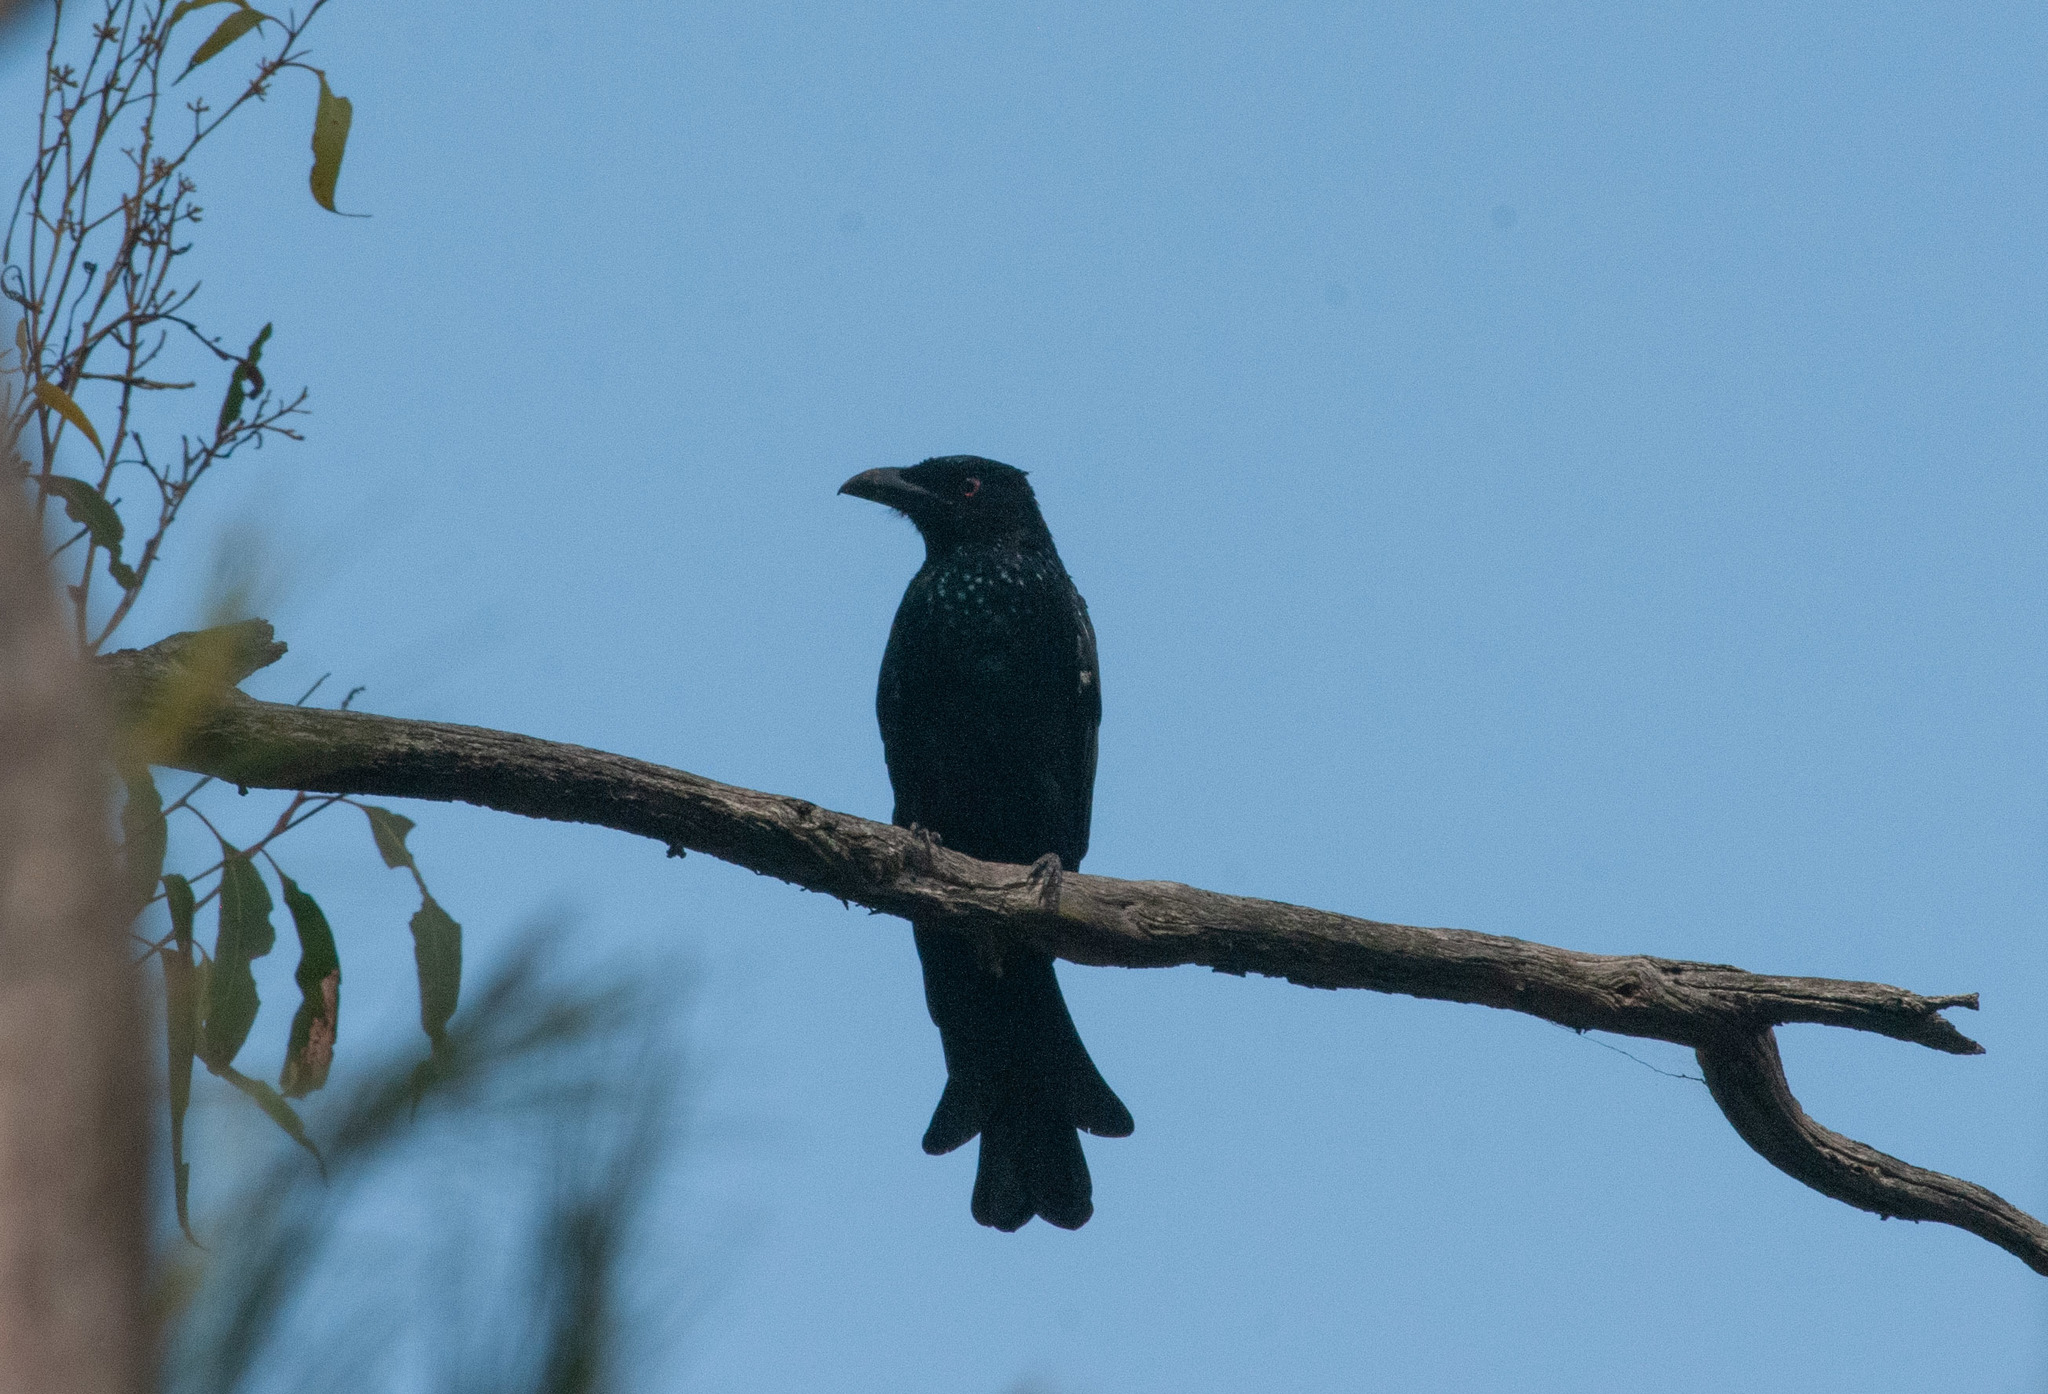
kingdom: Animalia
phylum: Chordata
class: Aves
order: Passeriformes
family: Dicruridae
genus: Dicrurus
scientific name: Dicrurus bracteatus
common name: Spangled drongo
